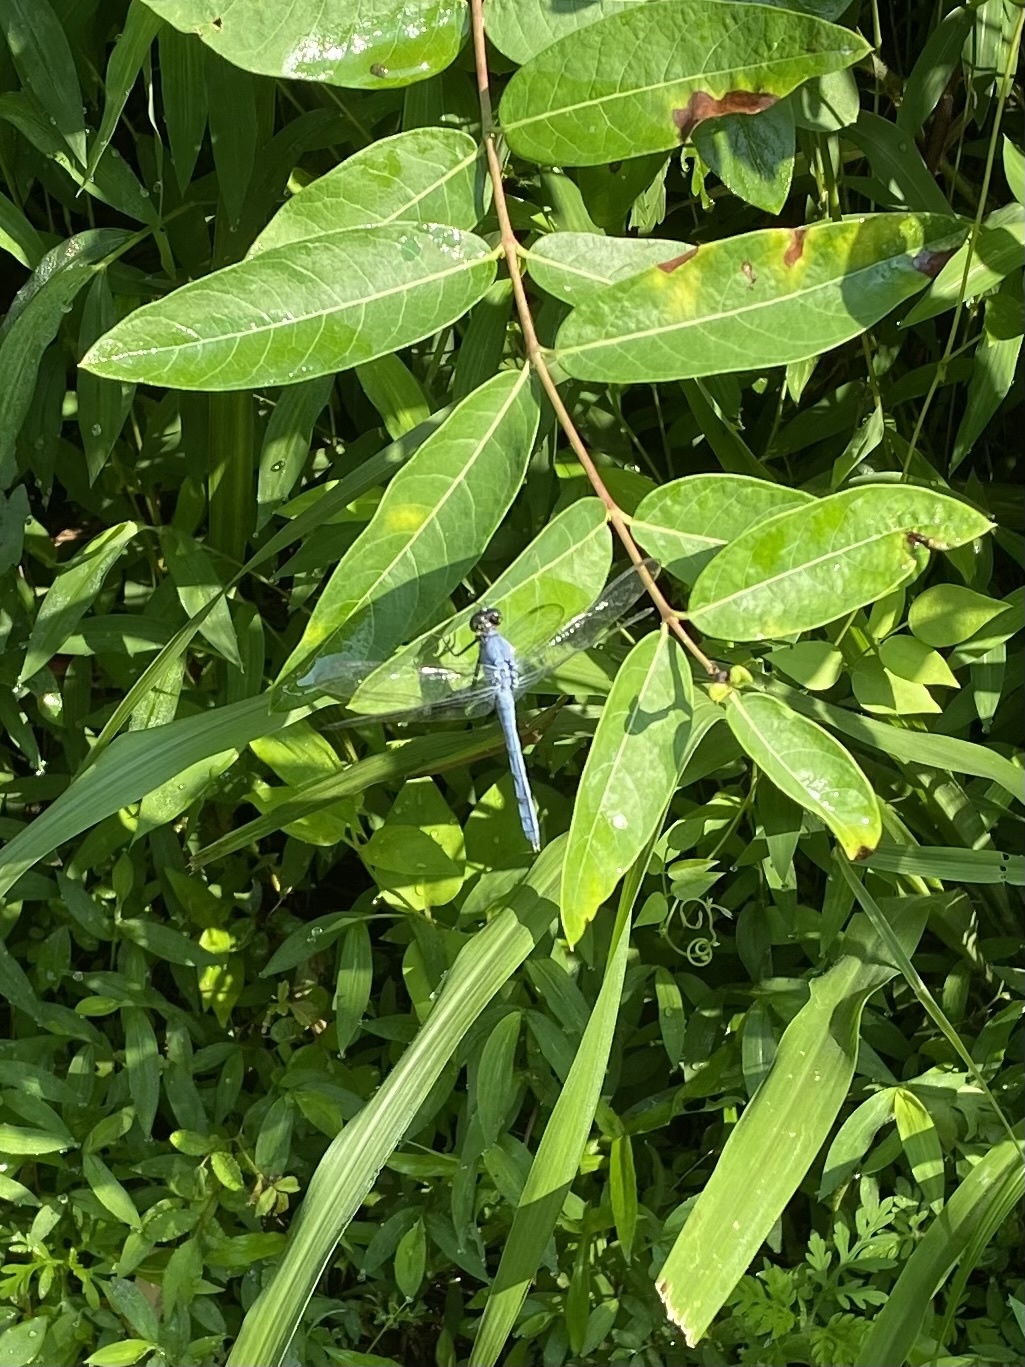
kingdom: Animalia
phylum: Arthropoda
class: Insecta
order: Odonata
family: Libellulidae
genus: Erythemis
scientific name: Erythemis simplicicollis
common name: Eastern pondhawk
